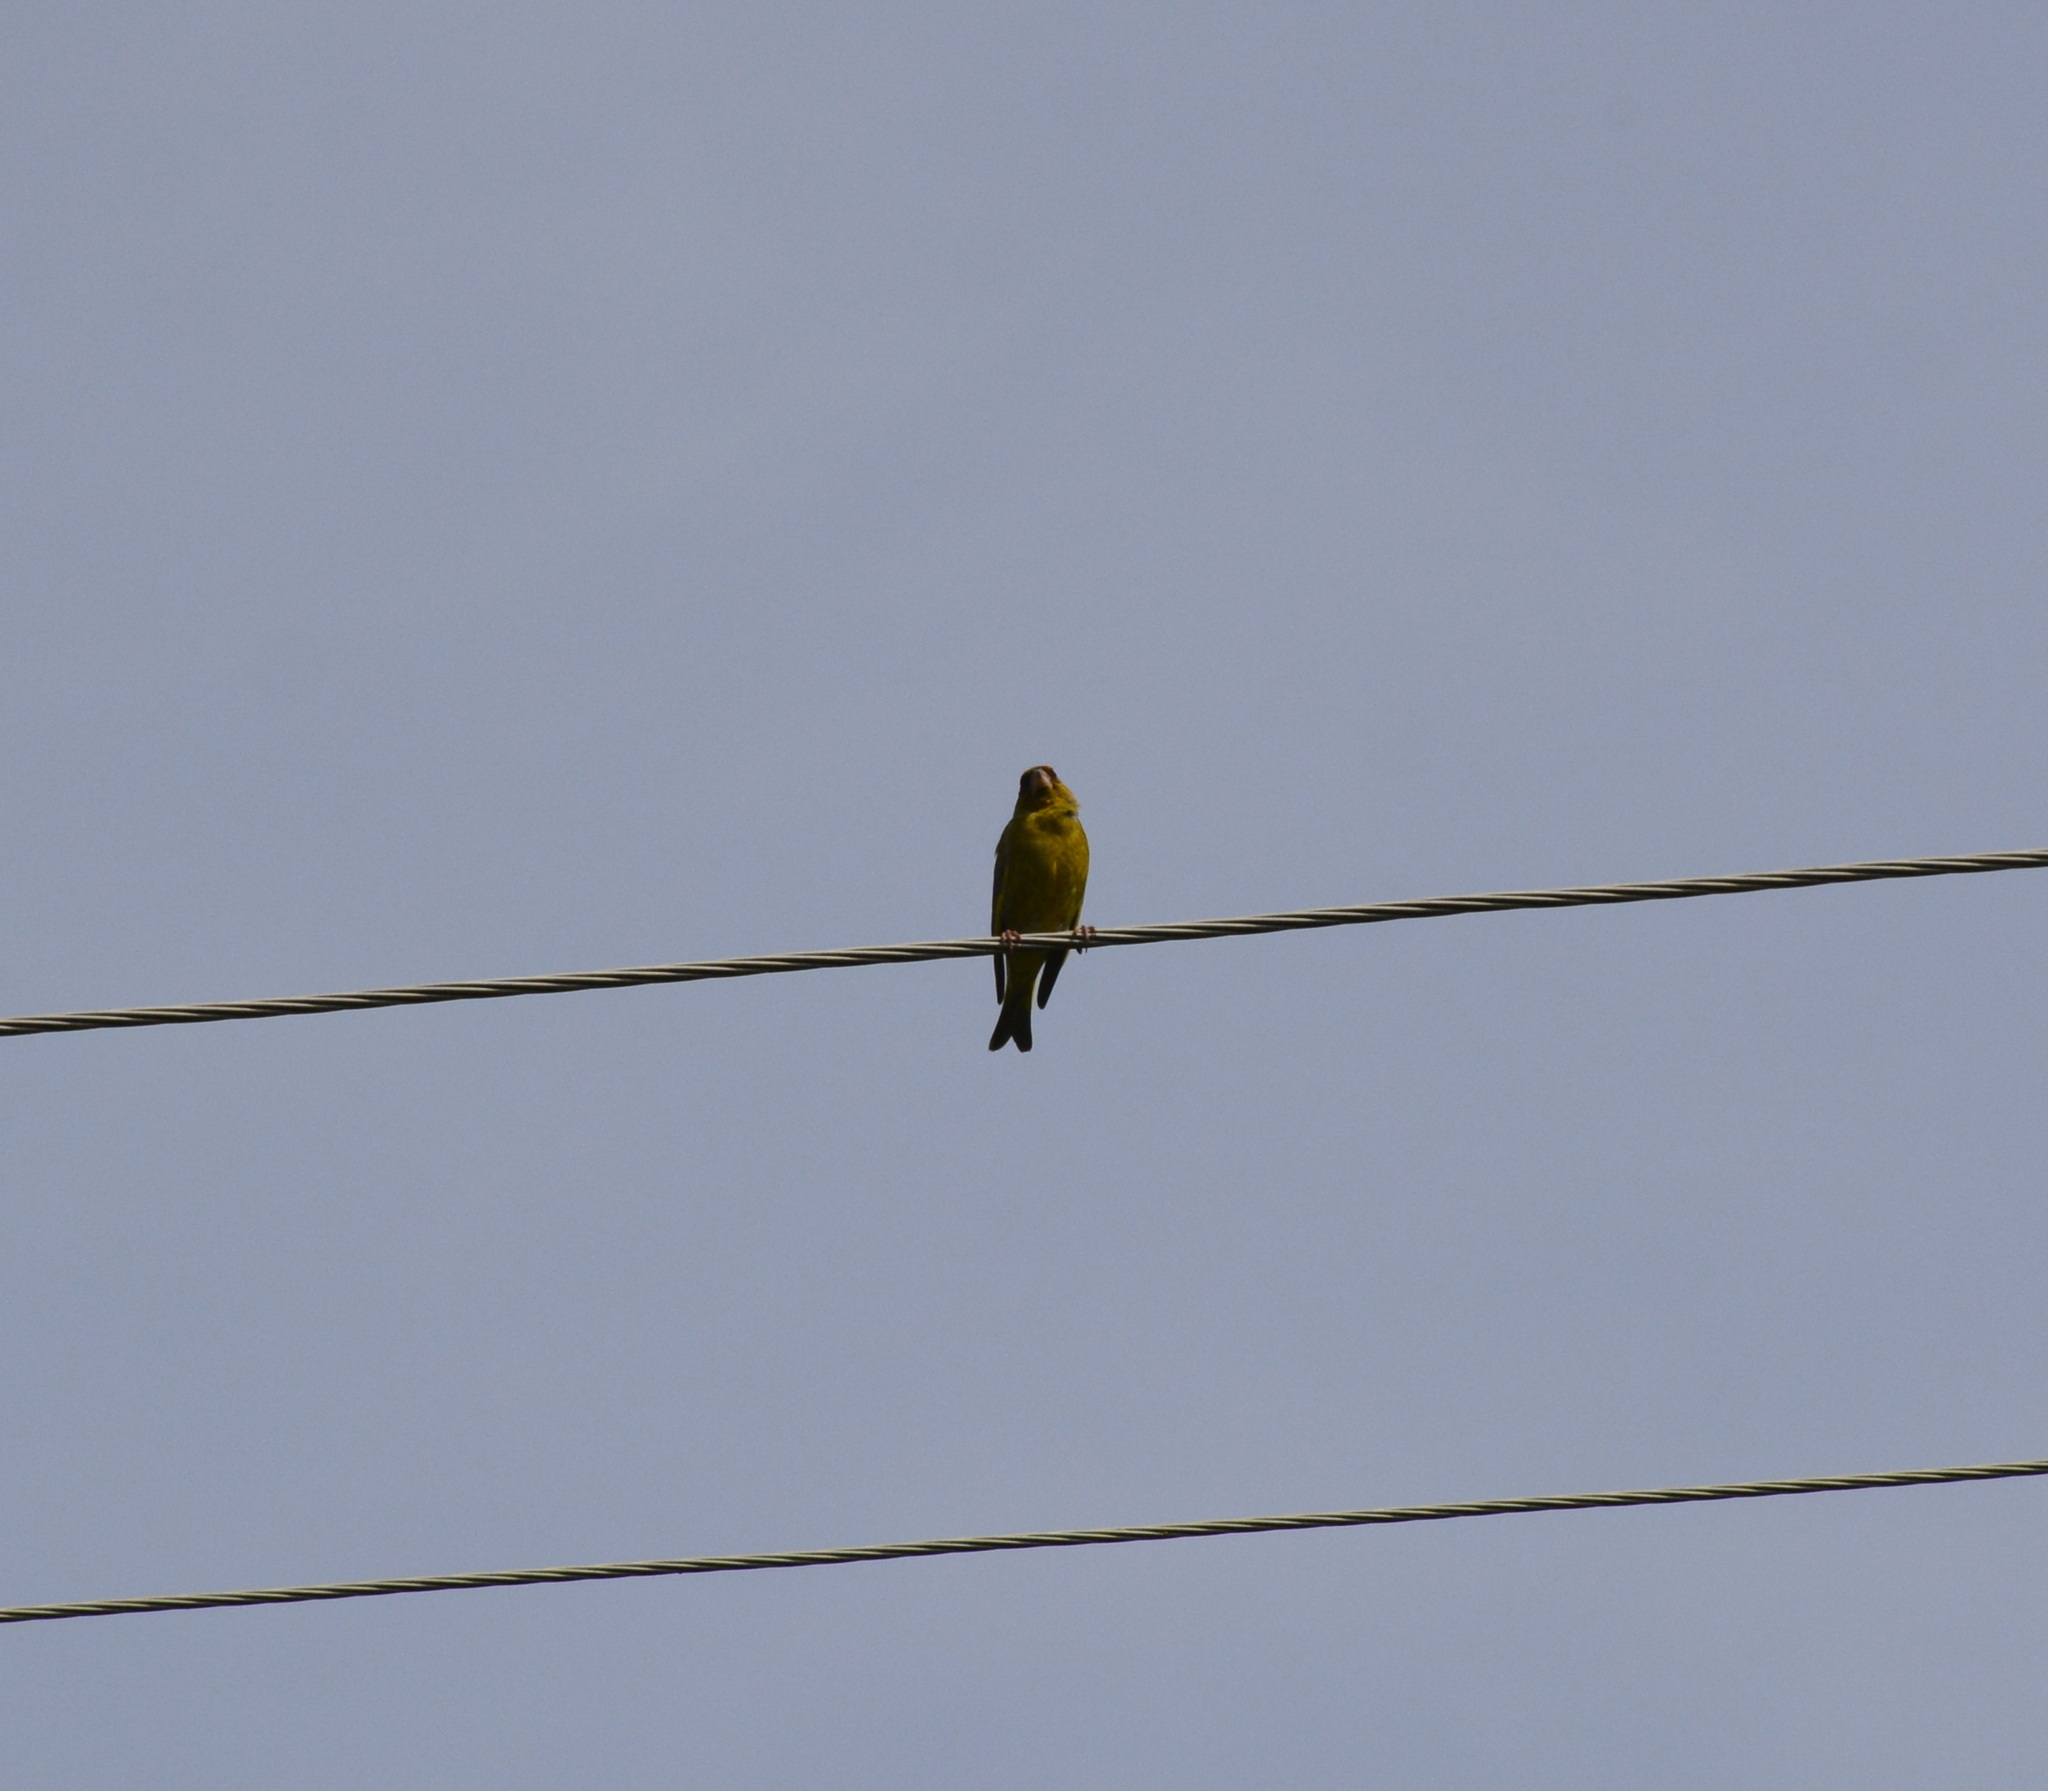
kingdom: Plantae
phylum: Tracheophyta
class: Liliopsida
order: Poales
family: Poaceae
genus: Chloris
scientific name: Chloris chloris
